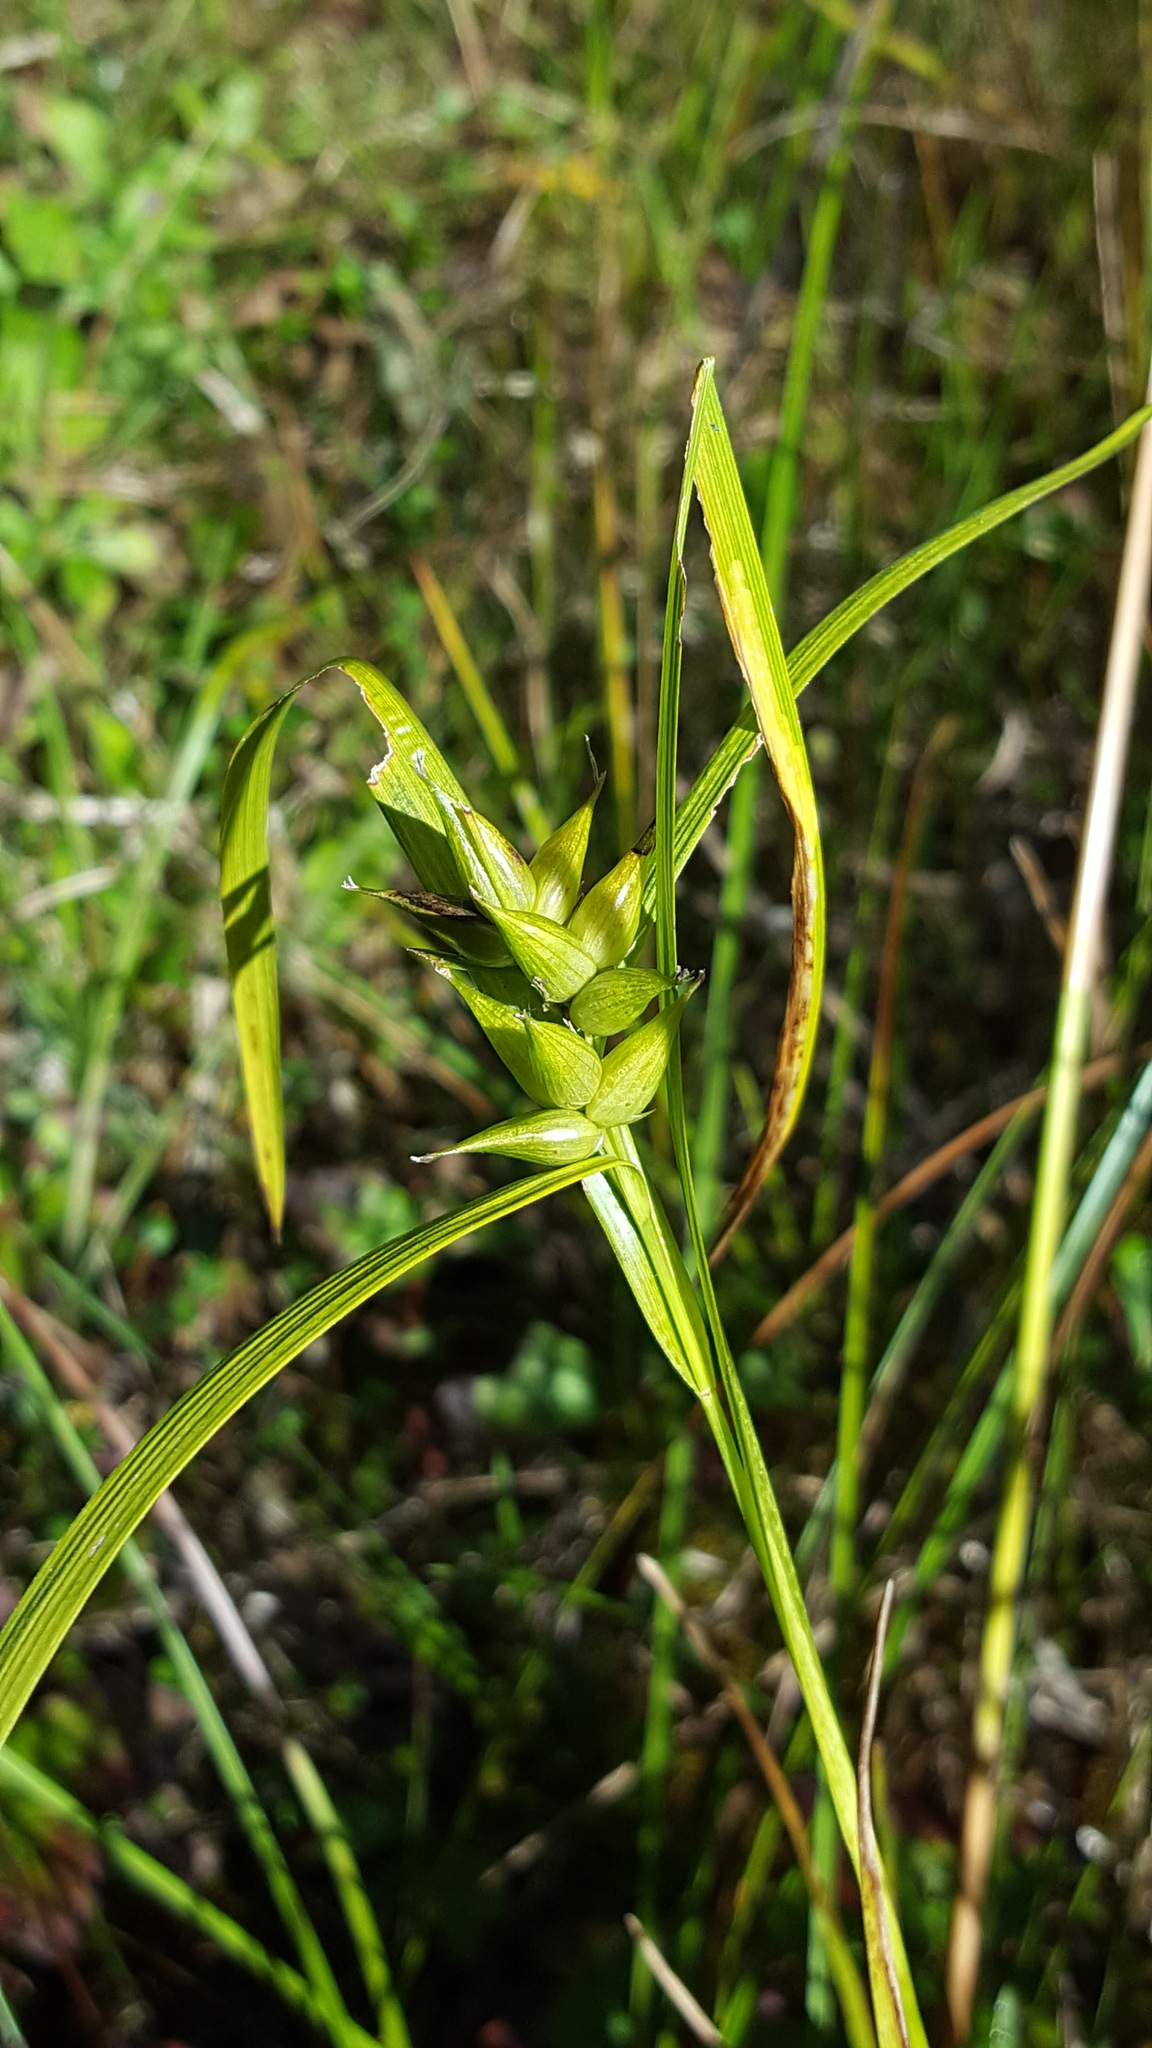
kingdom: Plantae
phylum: Tracheophyta
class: Liliopsida
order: Poales
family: Cyperaceae
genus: Carex
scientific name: Carex intumescens
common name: Greater bladder sedge
